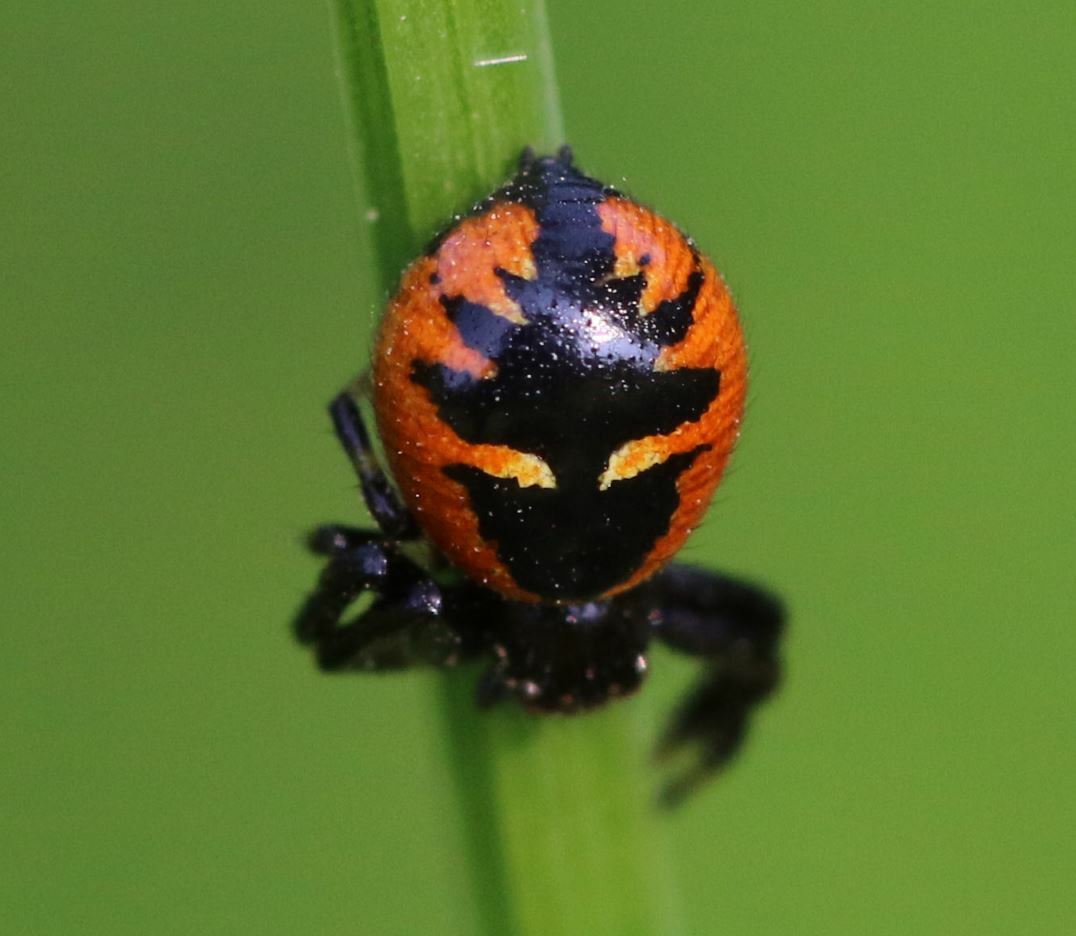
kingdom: Animalia
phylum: Arthropoda
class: Arachnida
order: Araneae
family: Thomisidae
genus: Synema
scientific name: Synema globosum
